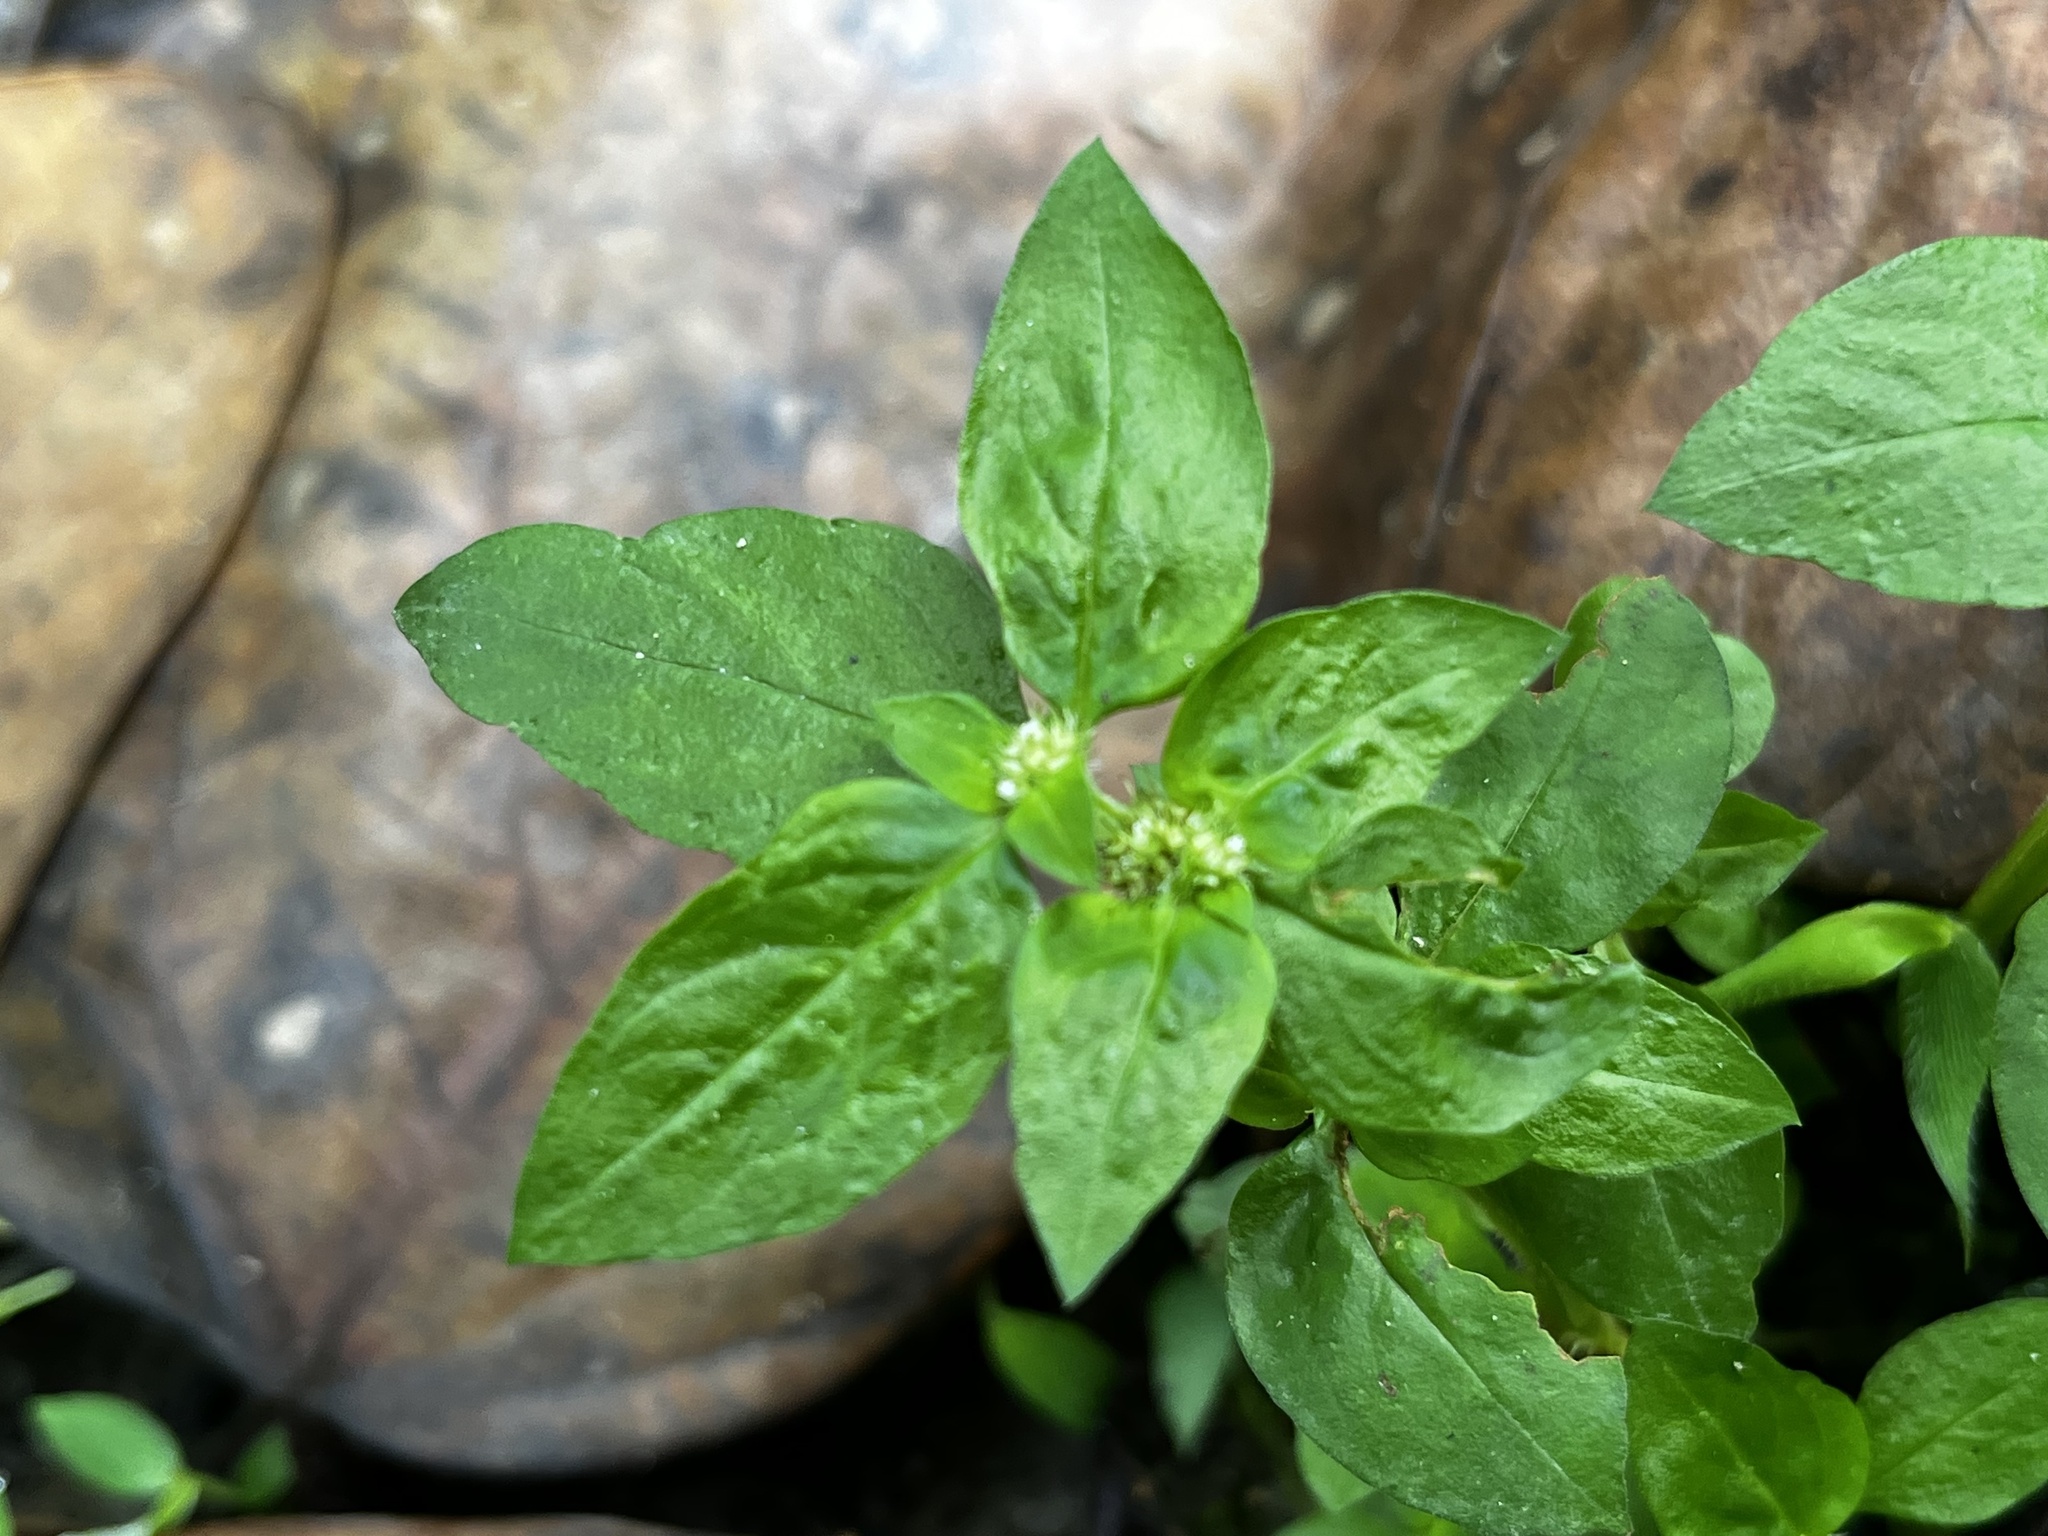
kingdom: Plantae
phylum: Tracheophyta
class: Magnoliopsida
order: Gentianales
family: Rubiaceae
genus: Spermacoce
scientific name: Spermacoce exilis
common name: Pacific false buttonweed
